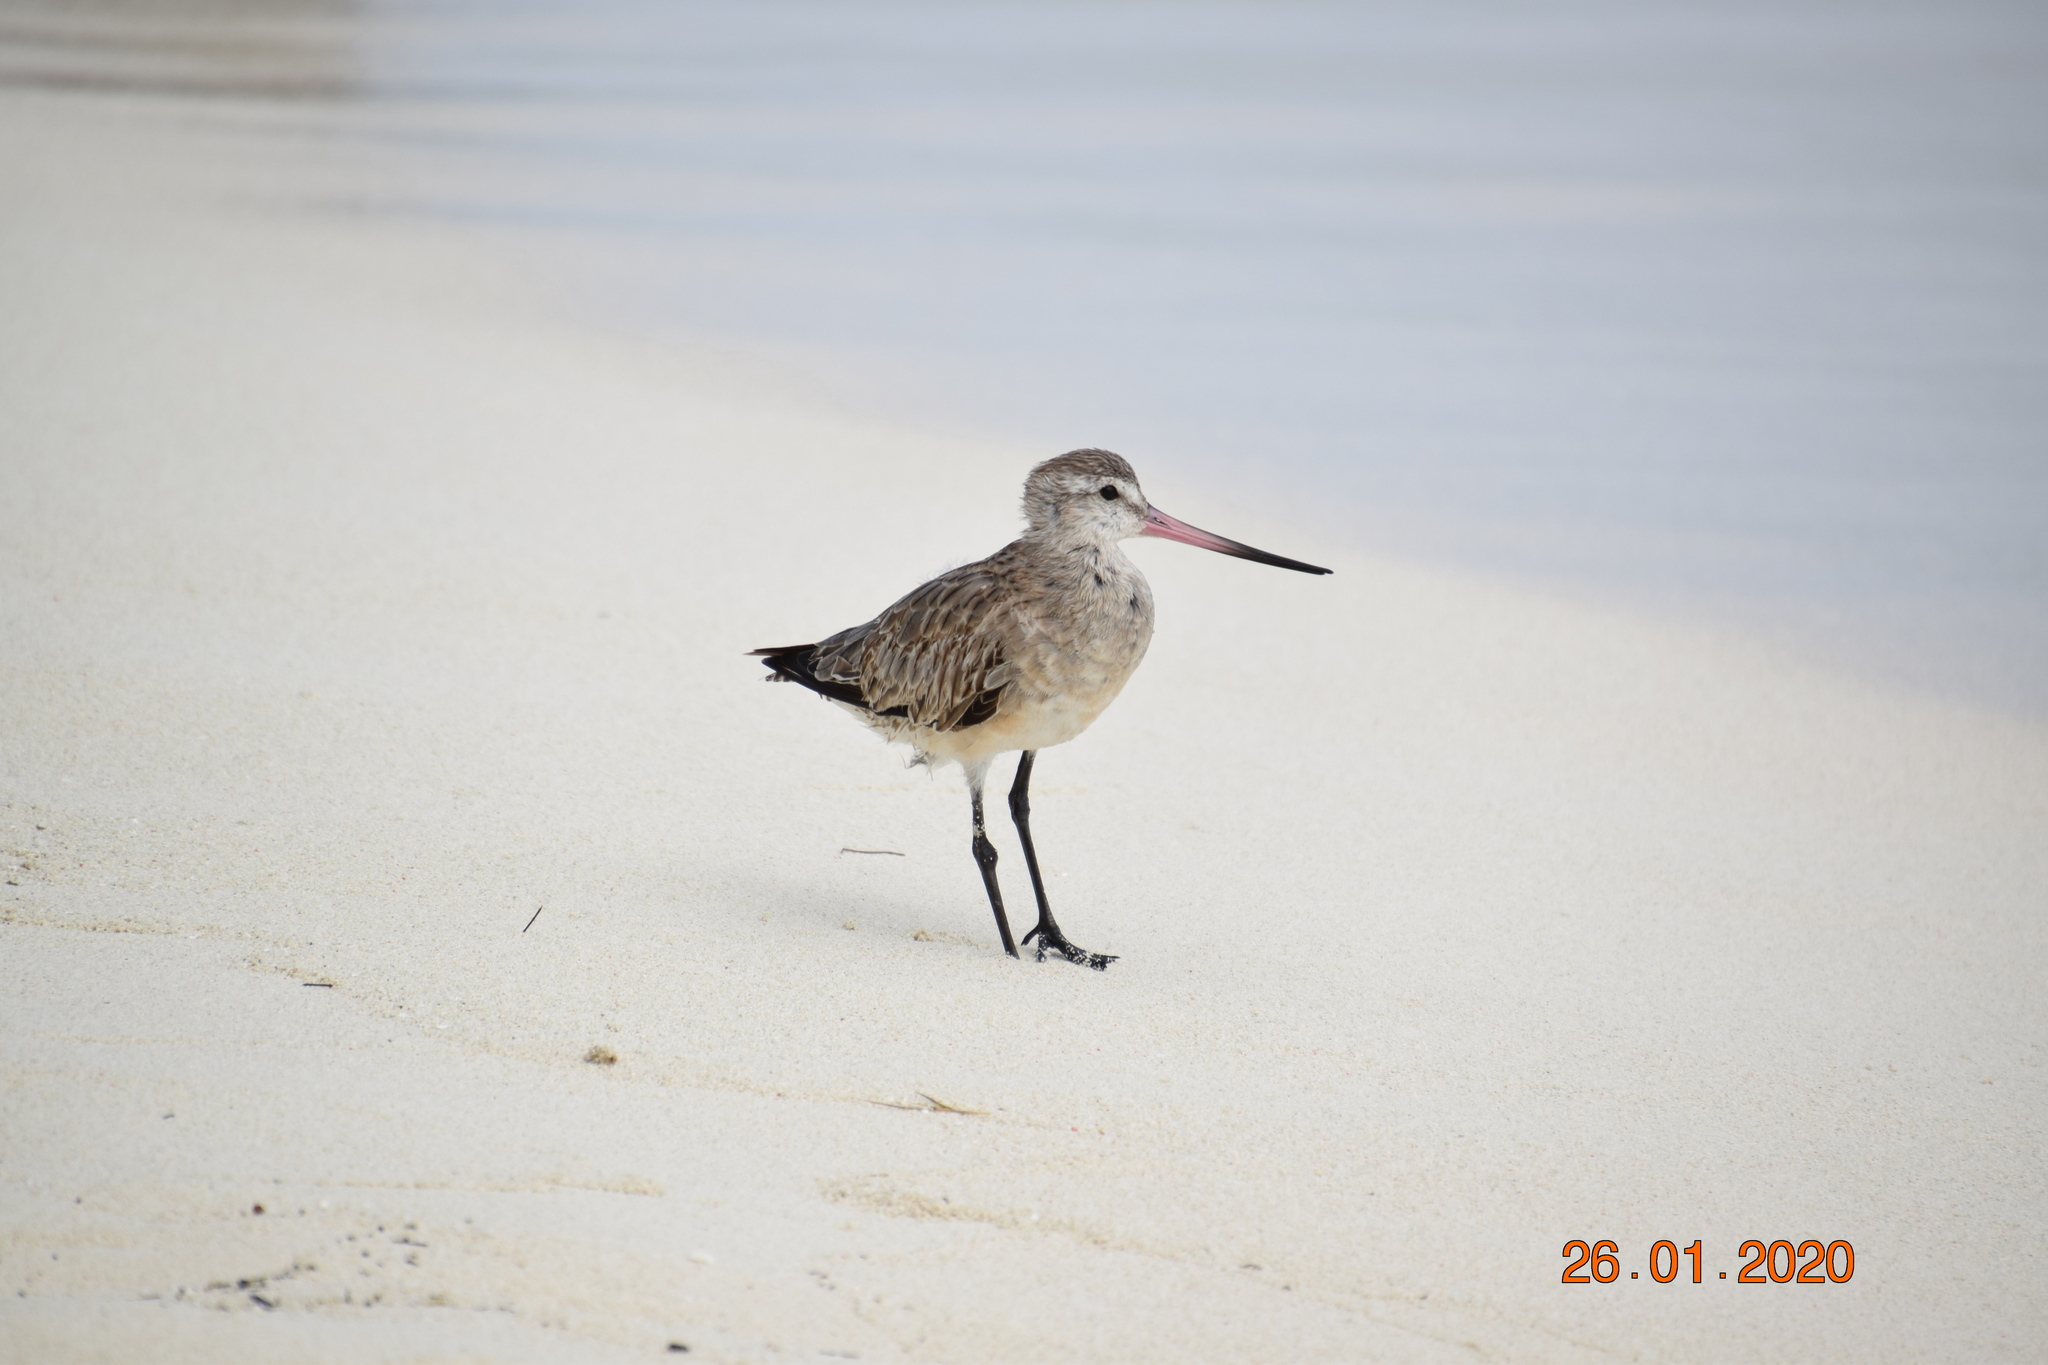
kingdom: Animalia
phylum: Chordata
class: Aves
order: Charadriiformes
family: Scolopacidae
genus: Limosa
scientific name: Limosa lapponica
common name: Bar-tailed godwit
